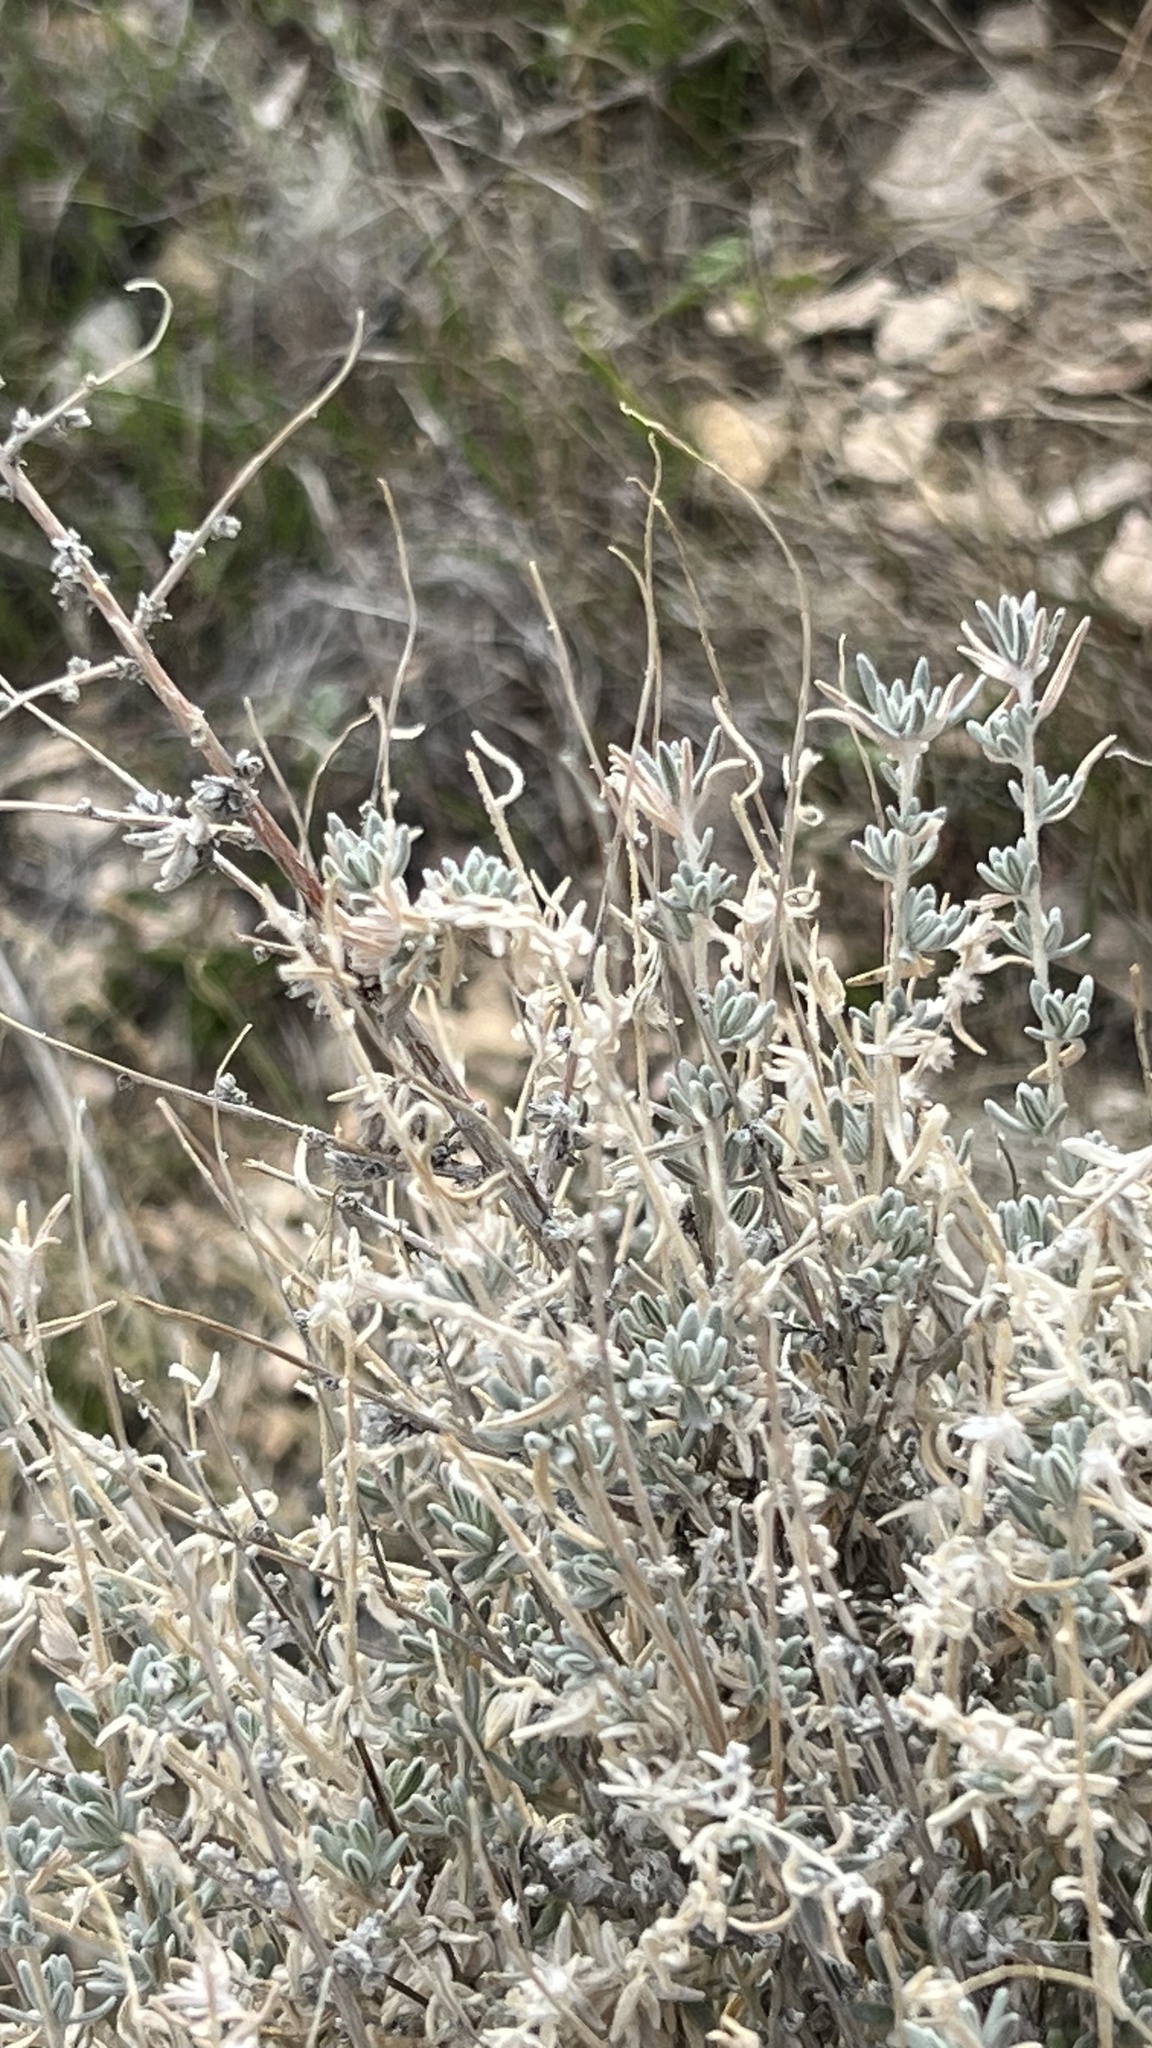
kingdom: Plantae
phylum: Tracheophyta
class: Magnoliopsida
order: Caryophyllales
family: Amaranthaceae
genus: Krascheninnikovia
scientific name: Krascheninnikovia lanata
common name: Winterfat
